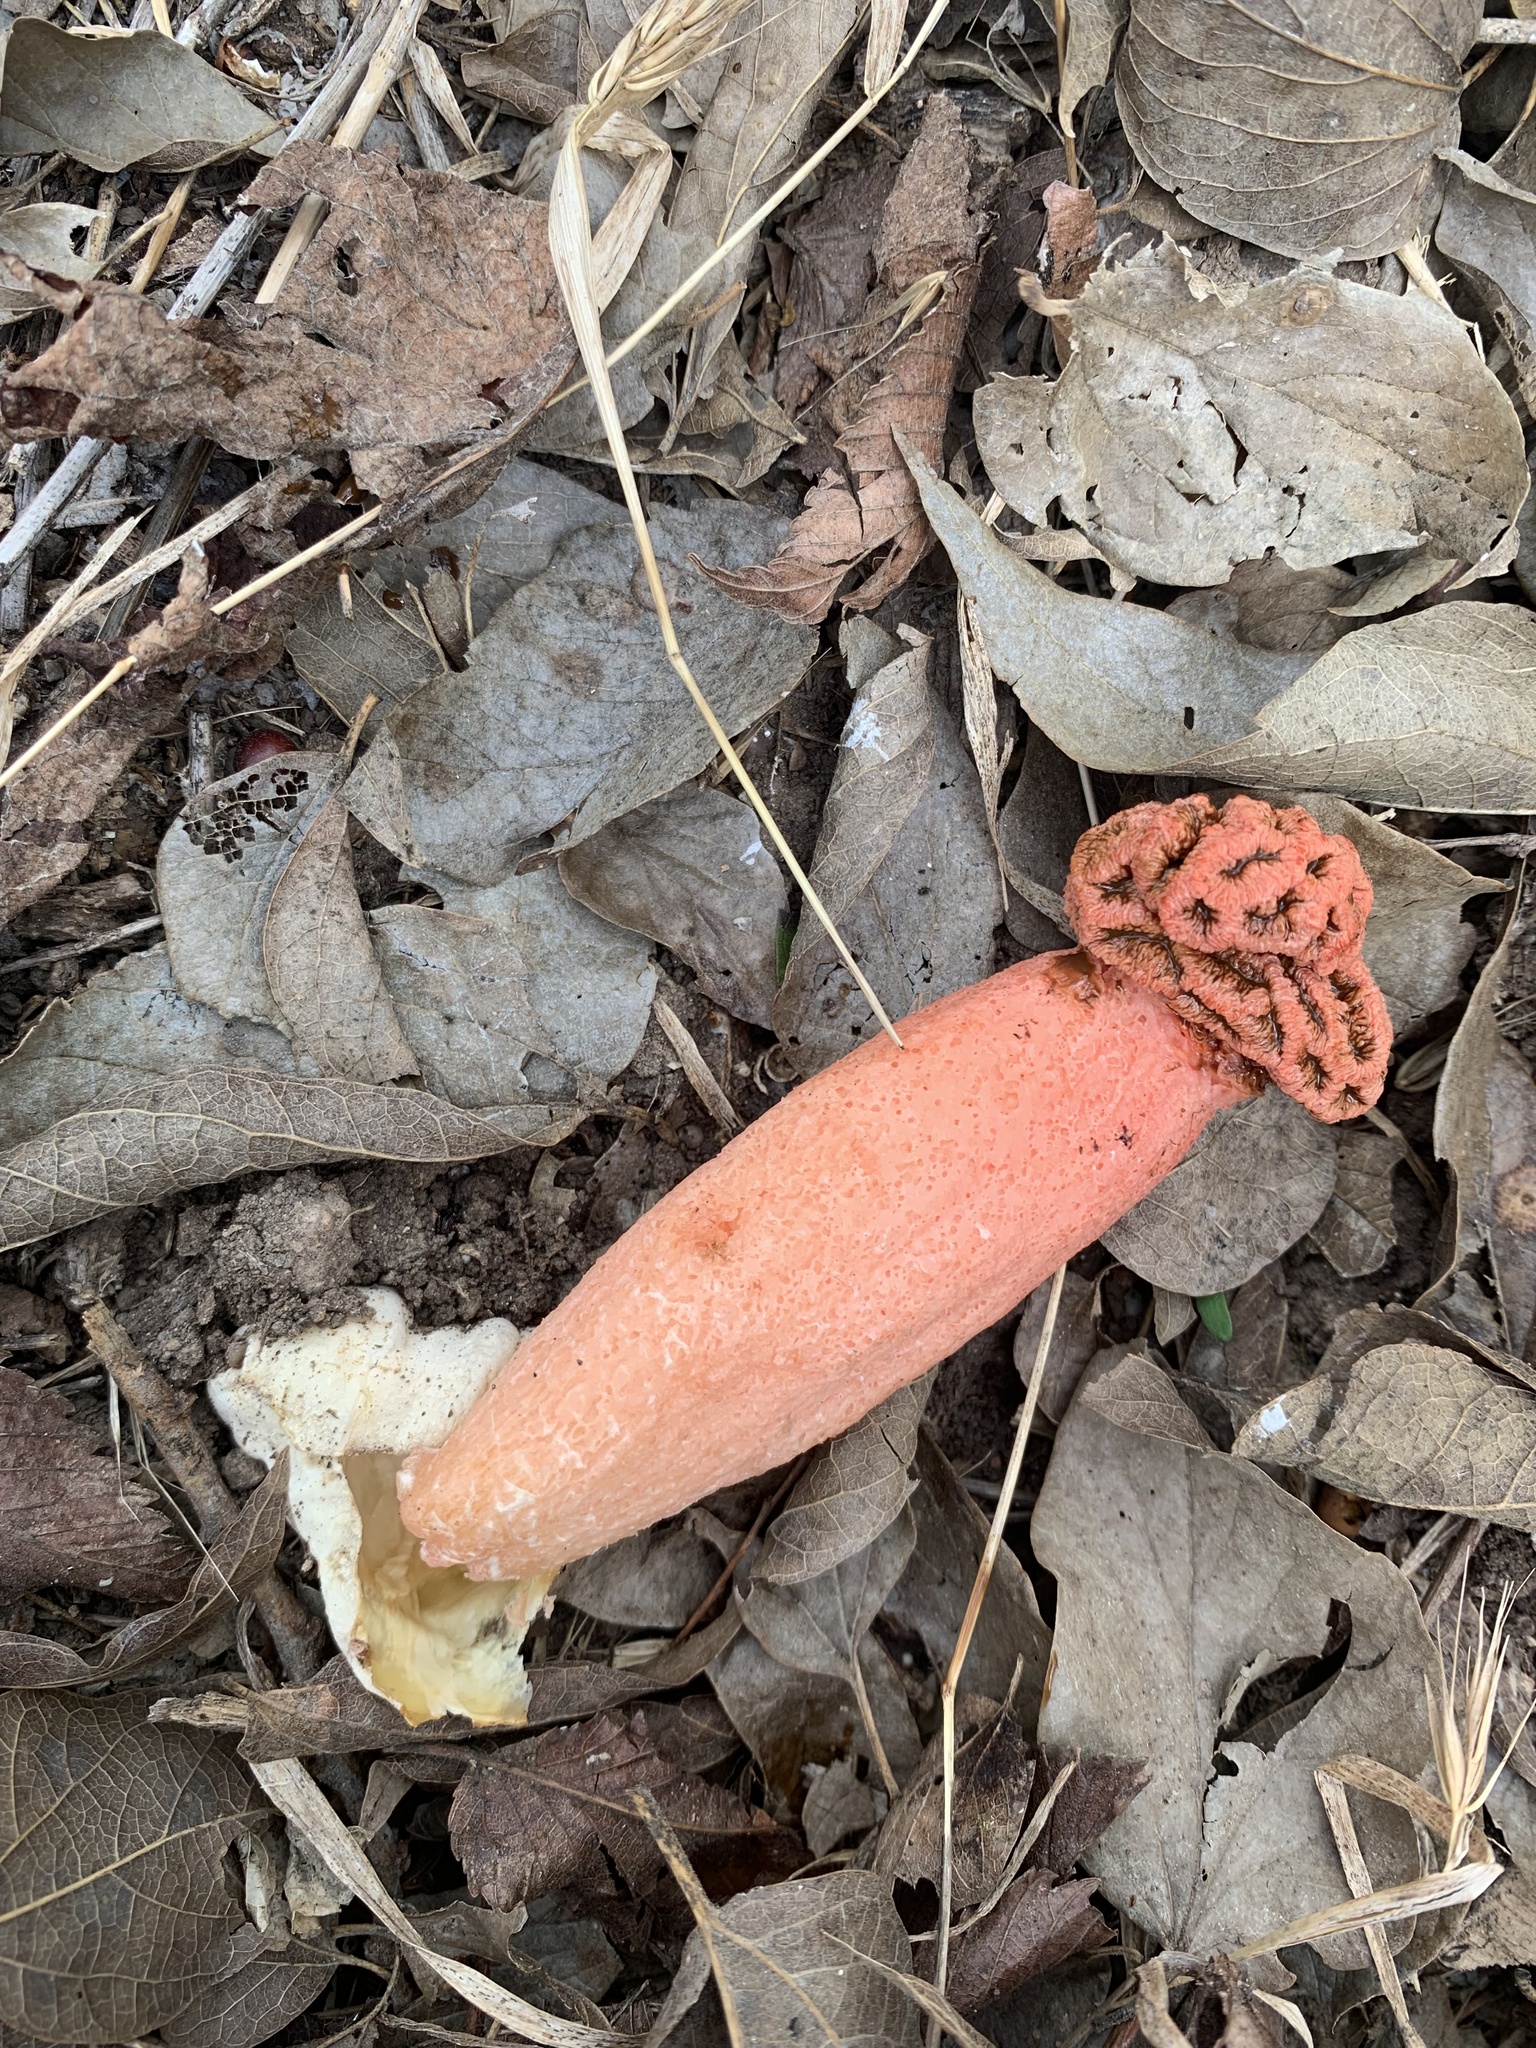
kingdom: Fungi
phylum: Basidiomycota
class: Agaricomycetes
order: Phallales
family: Phallaceae
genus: Lysurus
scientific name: Lysurus periphragmoides
